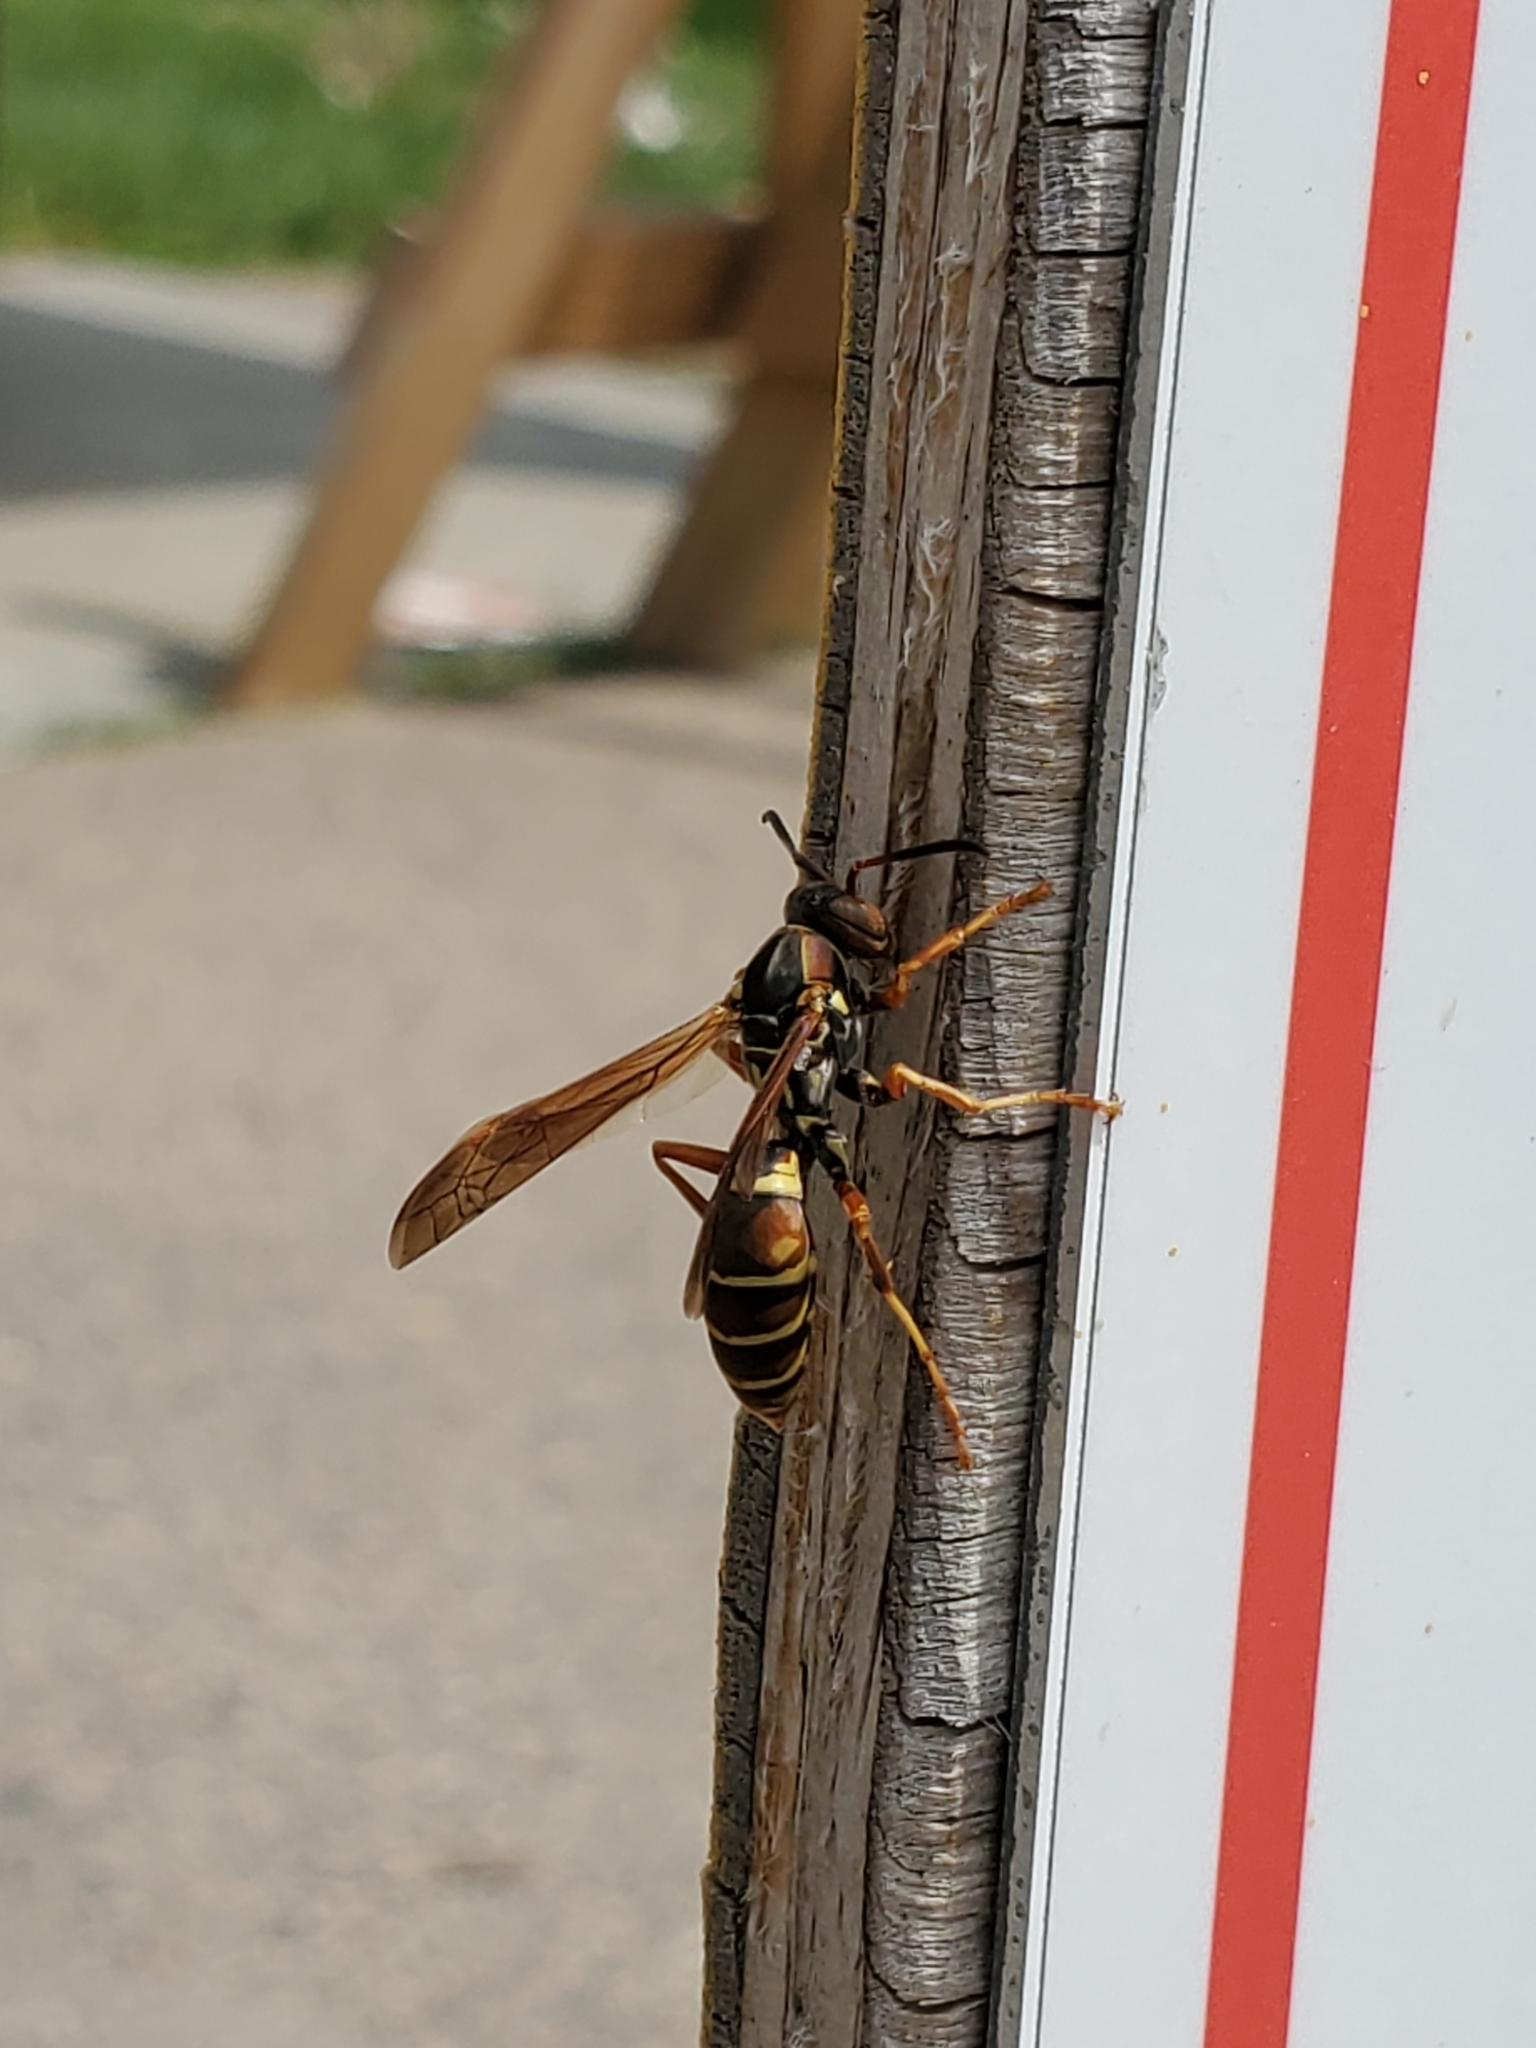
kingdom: Animalia
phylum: Arthropoda
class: Insecta
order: Hymenoptera
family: Eumenidae
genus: Polistes
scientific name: Polistes fuscatus
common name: Dark paper wasp
